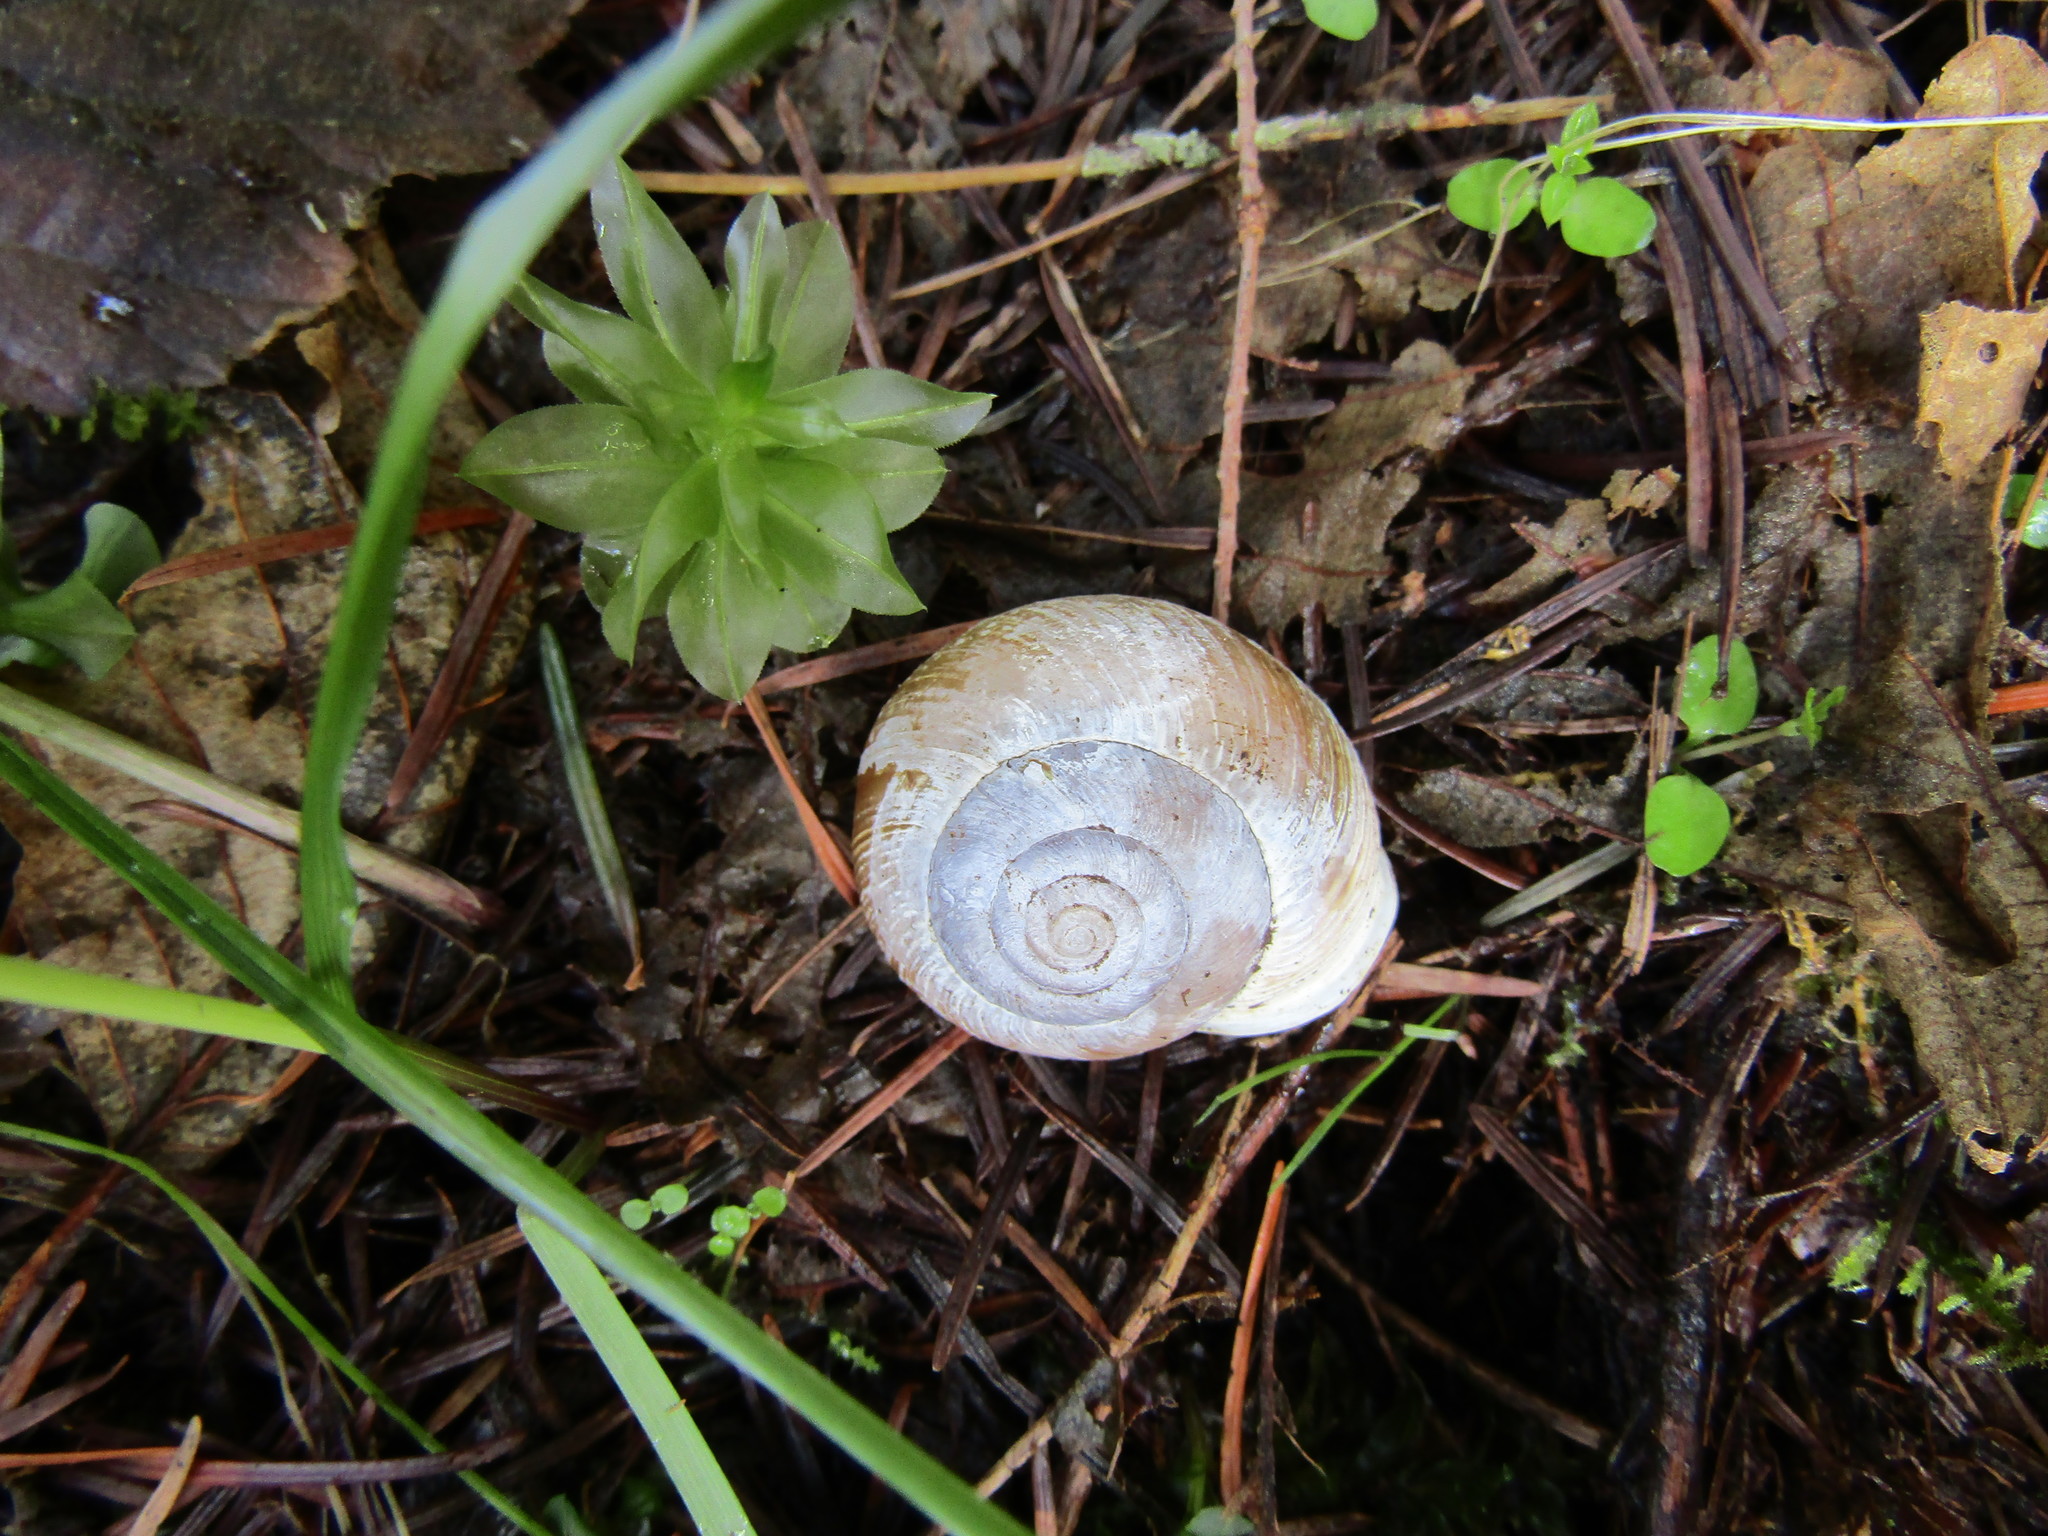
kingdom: Animalia
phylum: Mollusca
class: Gastropoda
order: Stylommatophora
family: Polygyridae
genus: Allogona
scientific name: Allogona townsendiana
